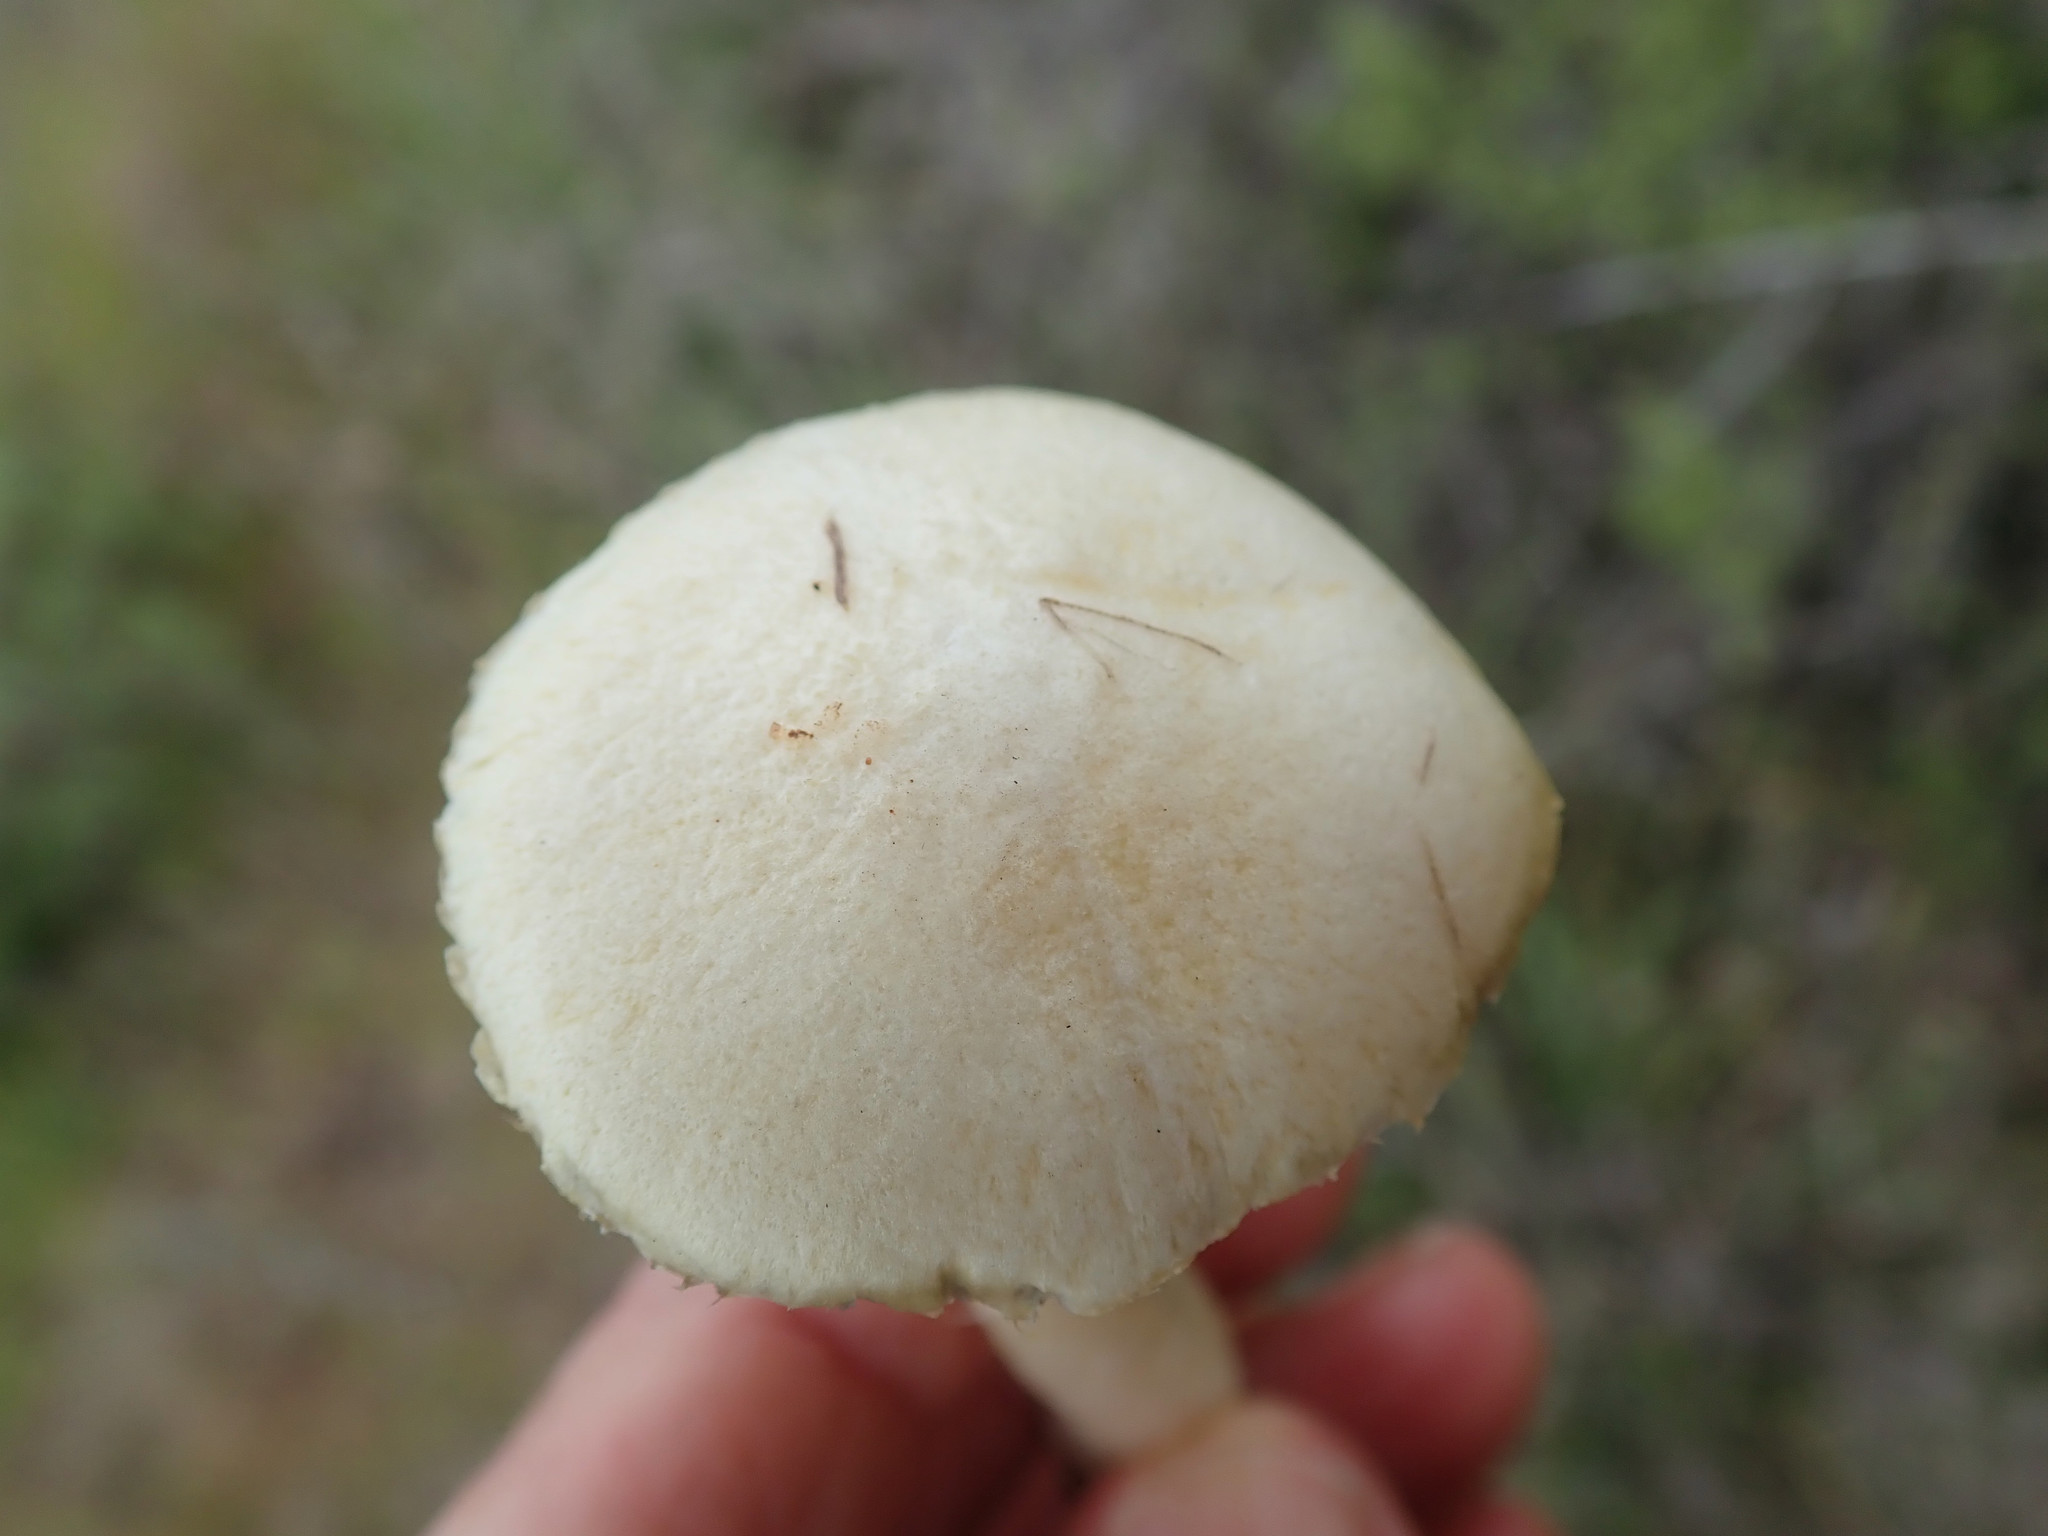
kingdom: Fungi
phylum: Basidiomycota
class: Agaricomycetes
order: Agaricales
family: Hymenogastraceae
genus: Psilocybe
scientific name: Psilocybe coronilla
